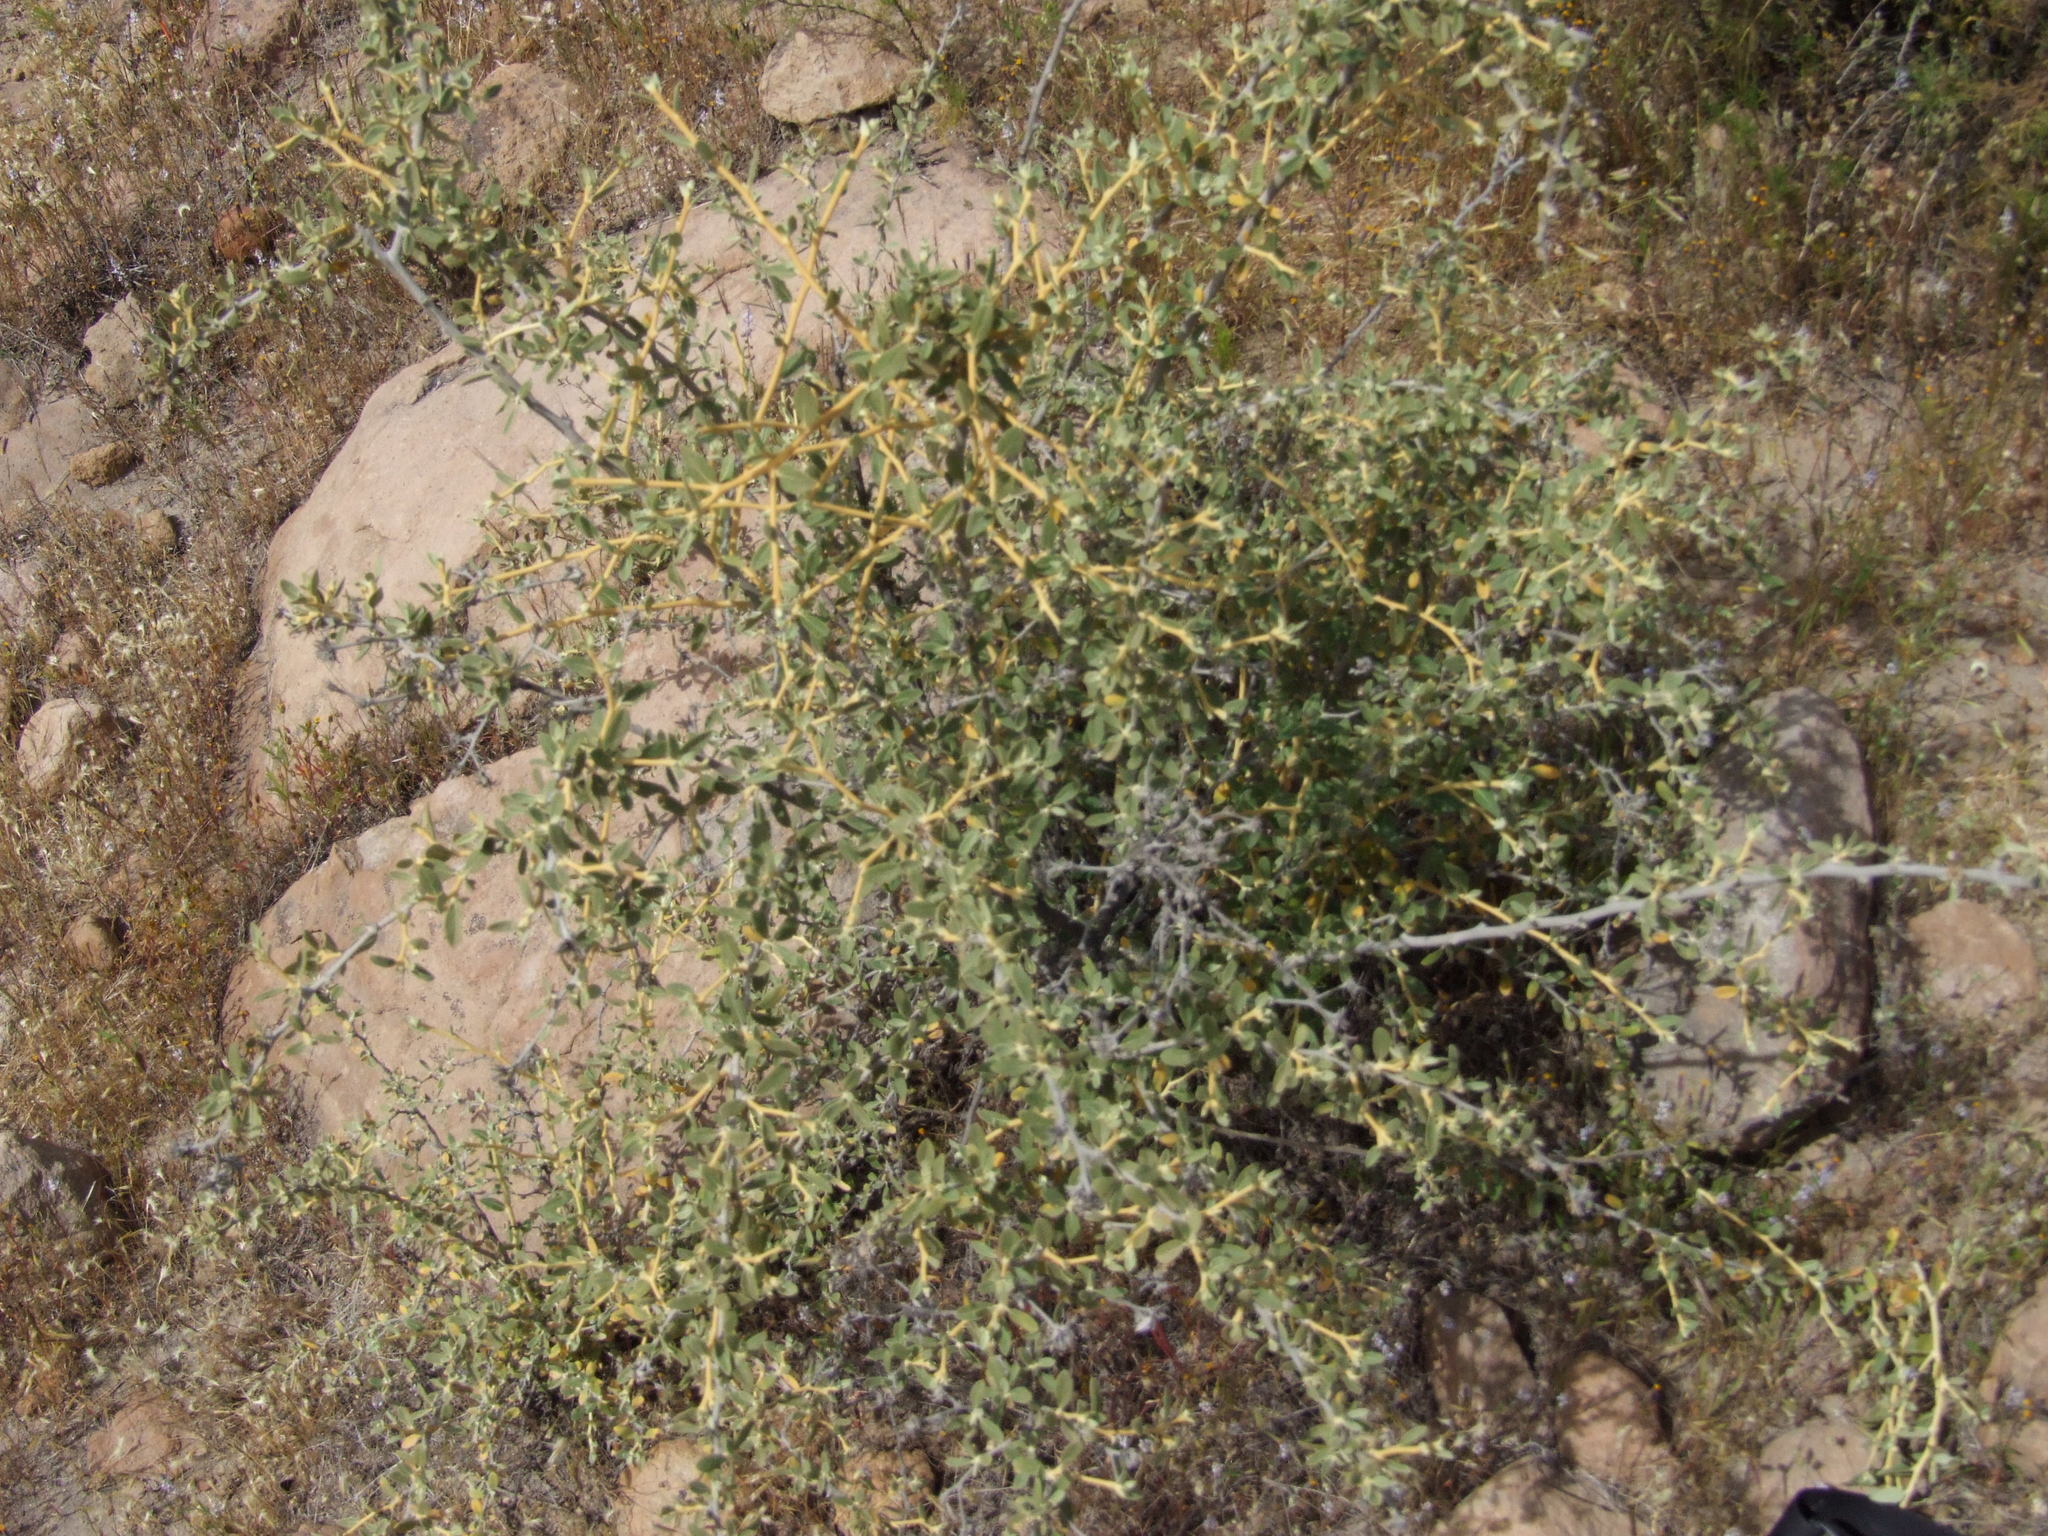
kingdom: Plantae
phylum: Tracheophyta
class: Magnoliopsida
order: Asterales
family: Asteraceae
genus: Gochnatia
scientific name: Gochnatia arequipensis
